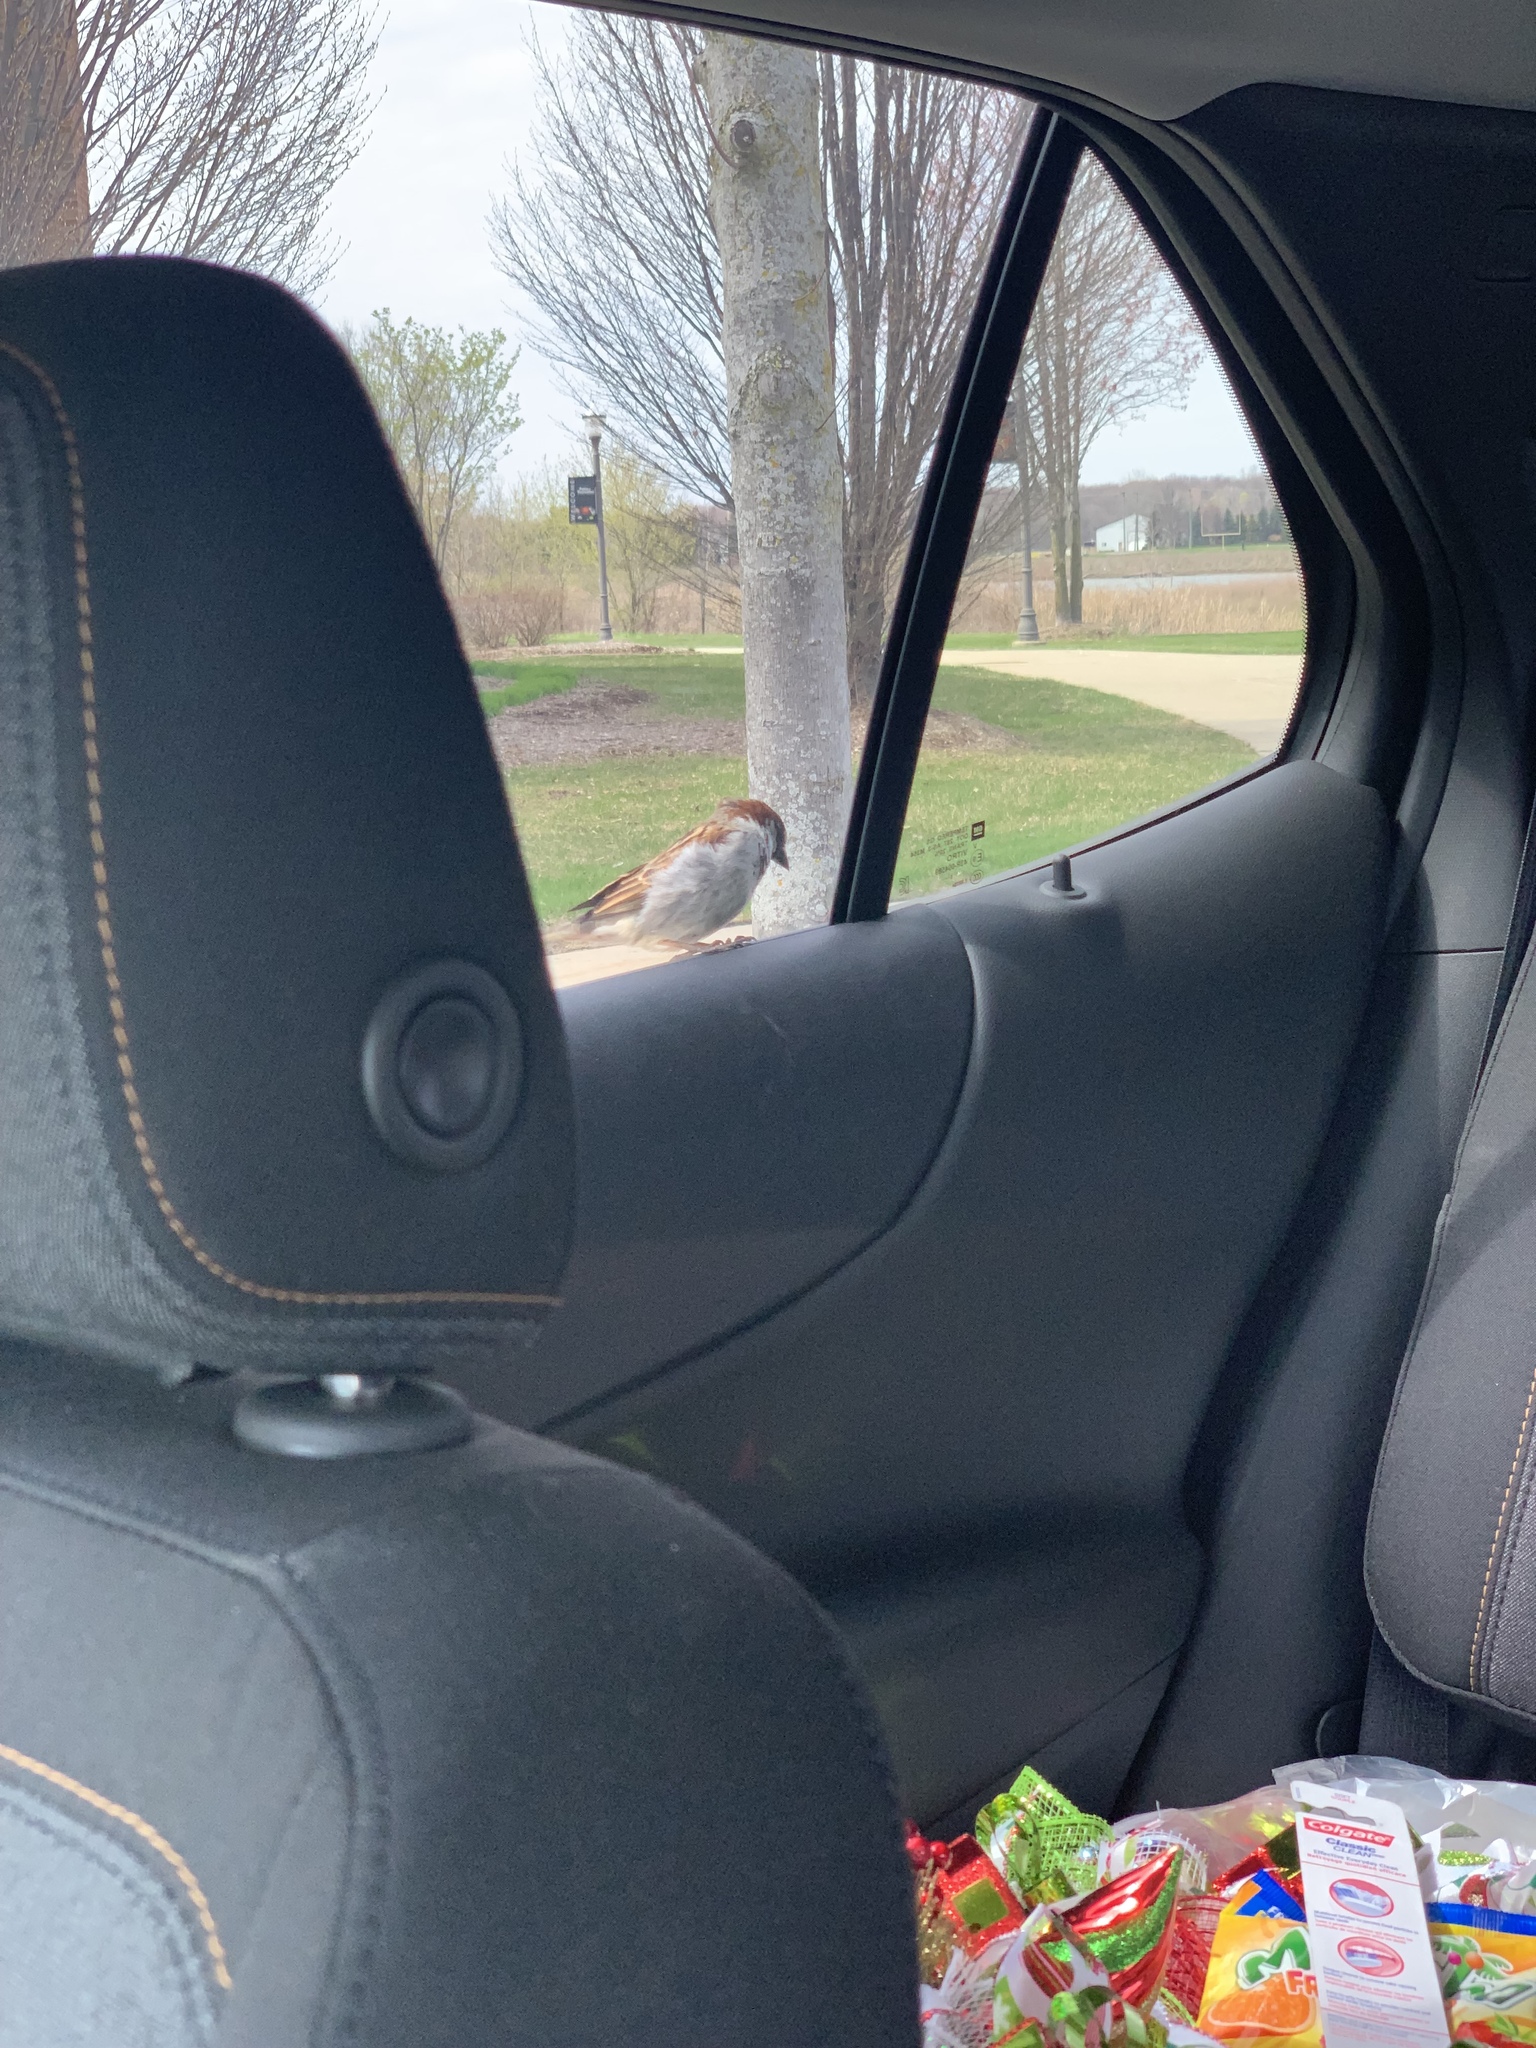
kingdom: Animalia
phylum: Chordata
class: Aves
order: Passeriformes
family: Passeridae
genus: Passer
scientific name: Passer domesticus
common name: House sparrow
